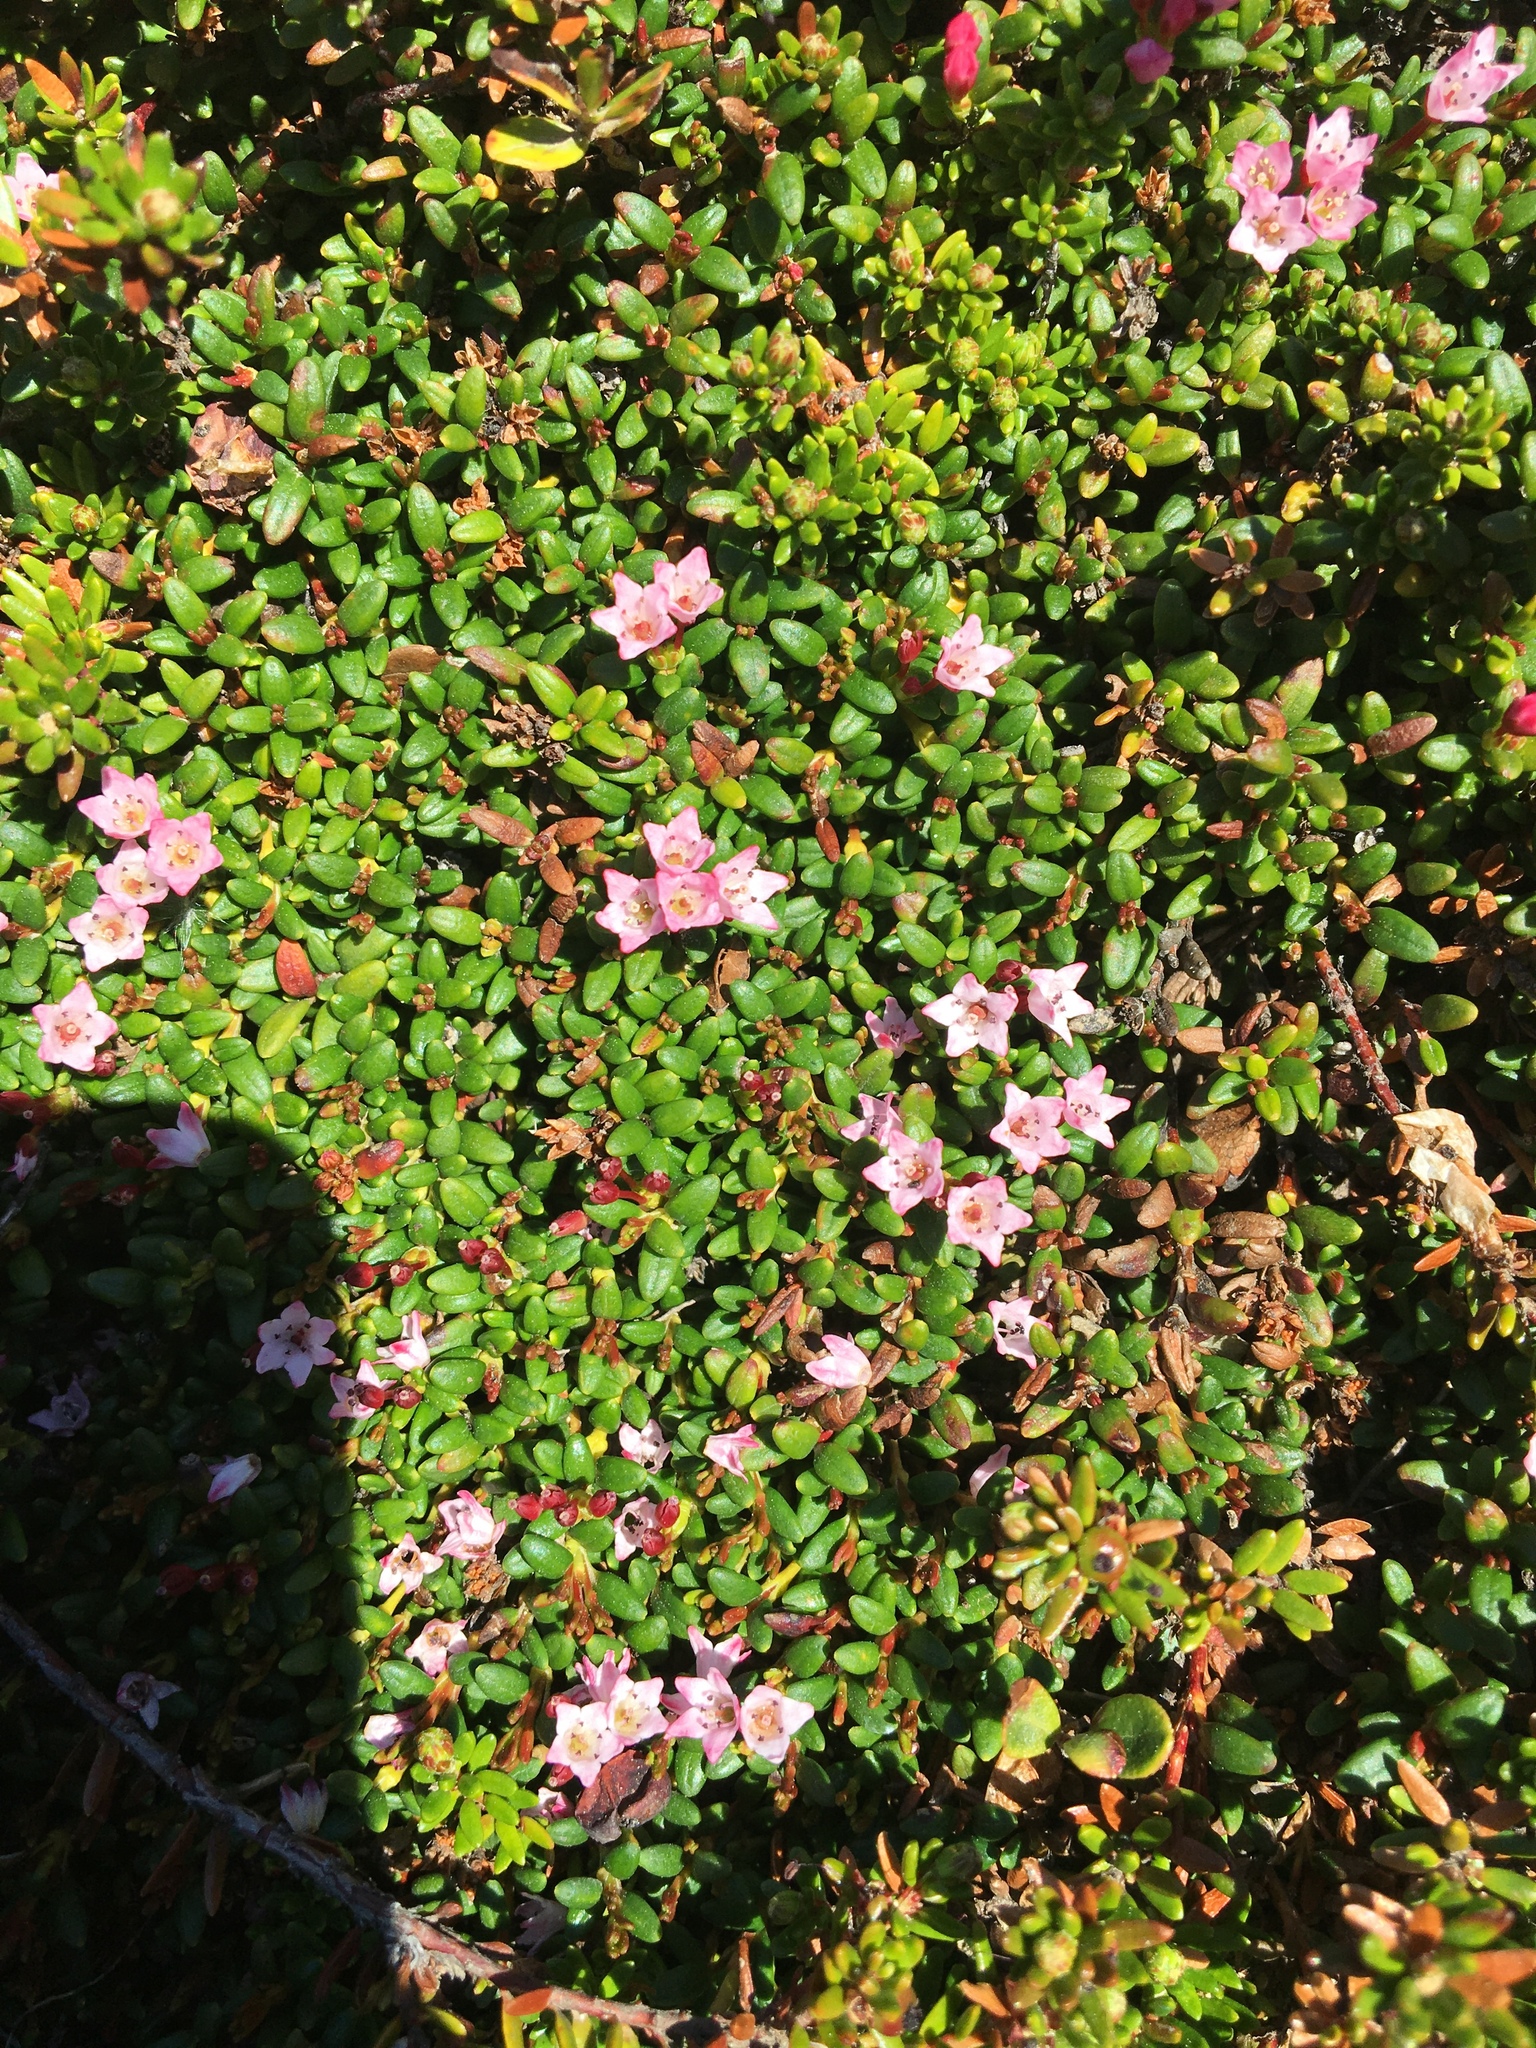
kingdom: Plantae
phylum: Tracheophyta
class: Magnoliopsida
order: Ericales
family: Ericaceae
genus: Kalmia
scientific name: Kalmia procumbens
